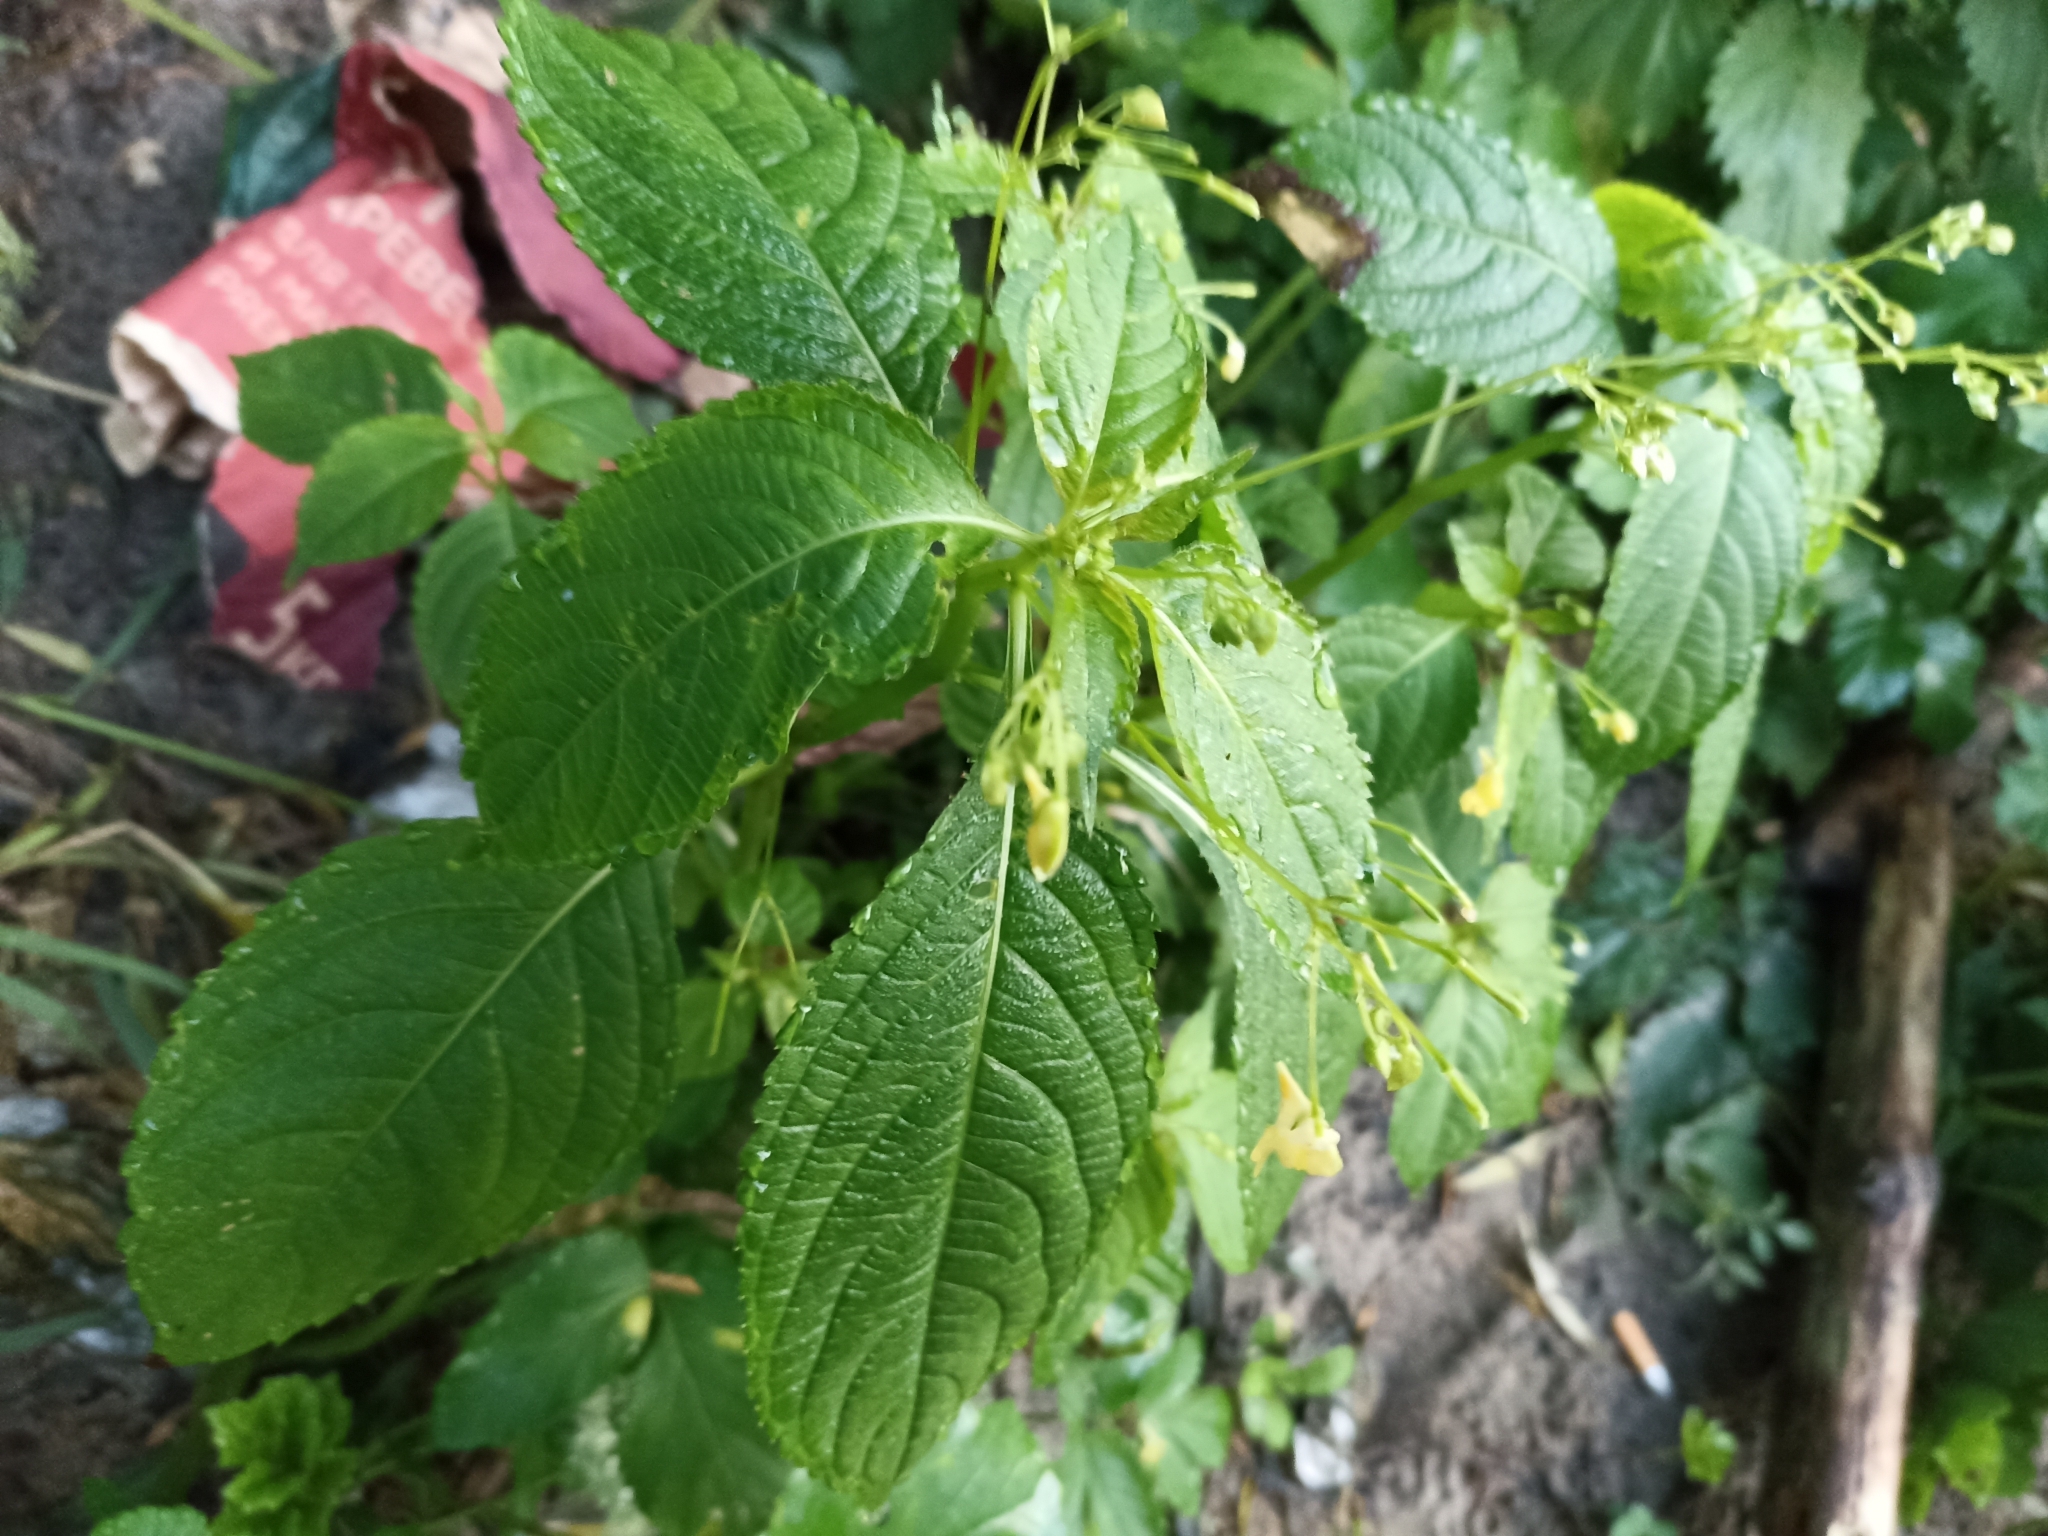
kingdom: Plantae
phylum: Tracheophyta
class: Magnoliopsida
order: Ericales
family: Balsaminaceae
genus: Impatiens
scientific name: Impatiens parviflora
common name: Small balsam
